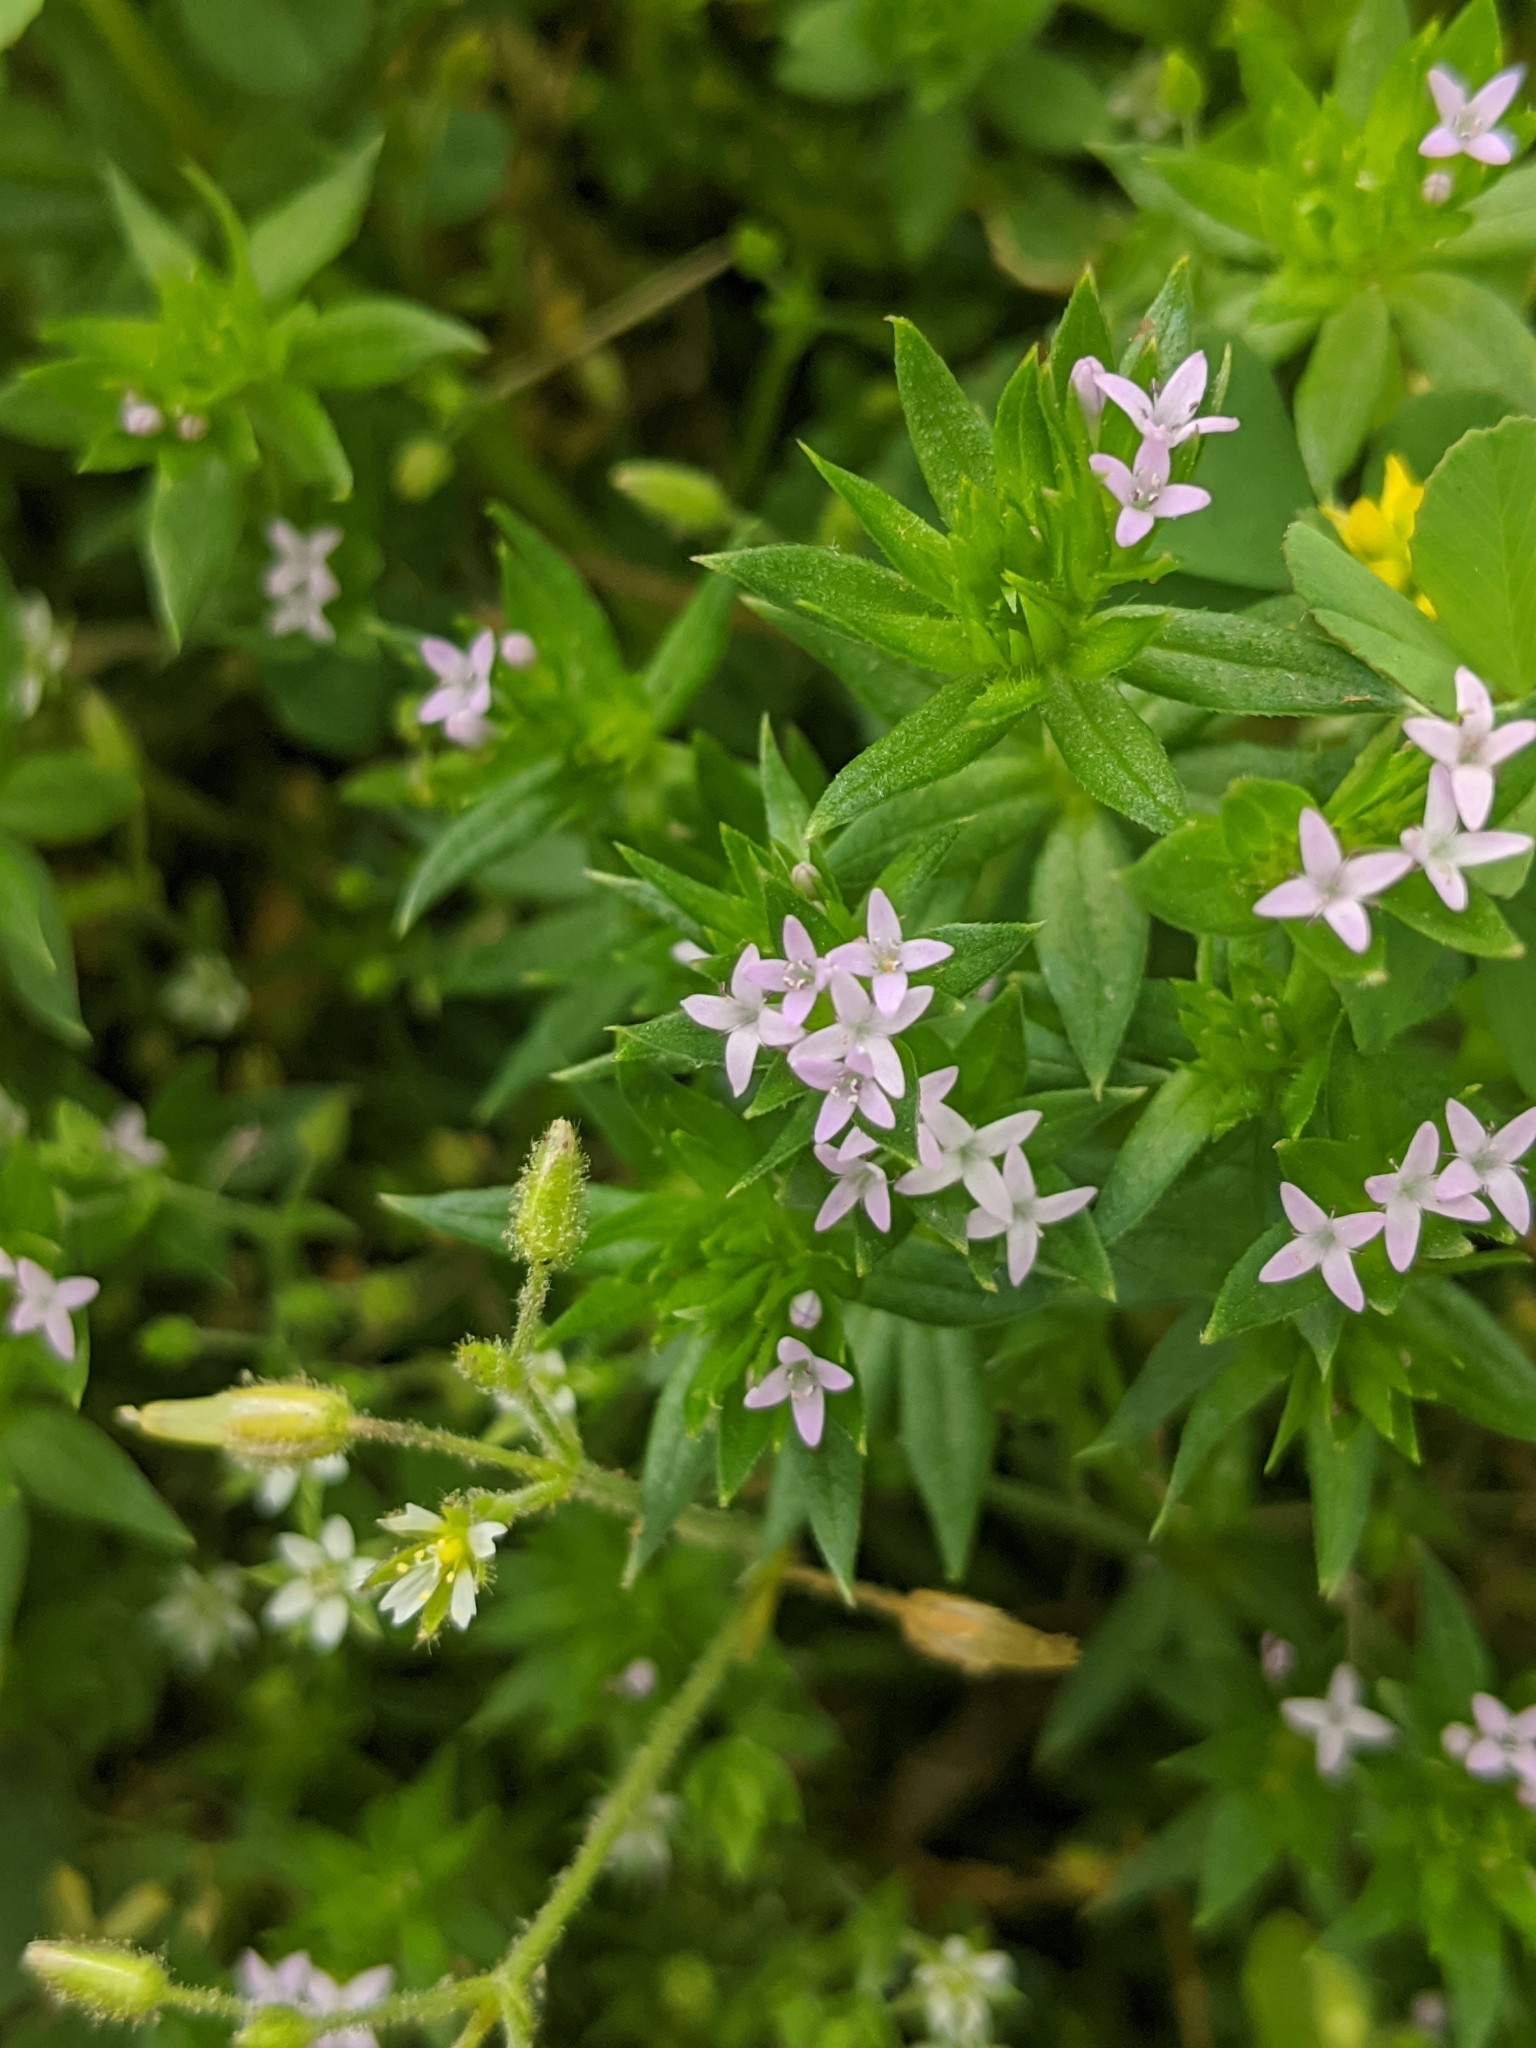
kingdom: Plantae
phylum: Tracheophyta
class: Magnoliopsida
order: Gentianales
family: Rubiaceae
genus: Sherardia
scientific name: Sherardia arvensis
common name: Field madder
